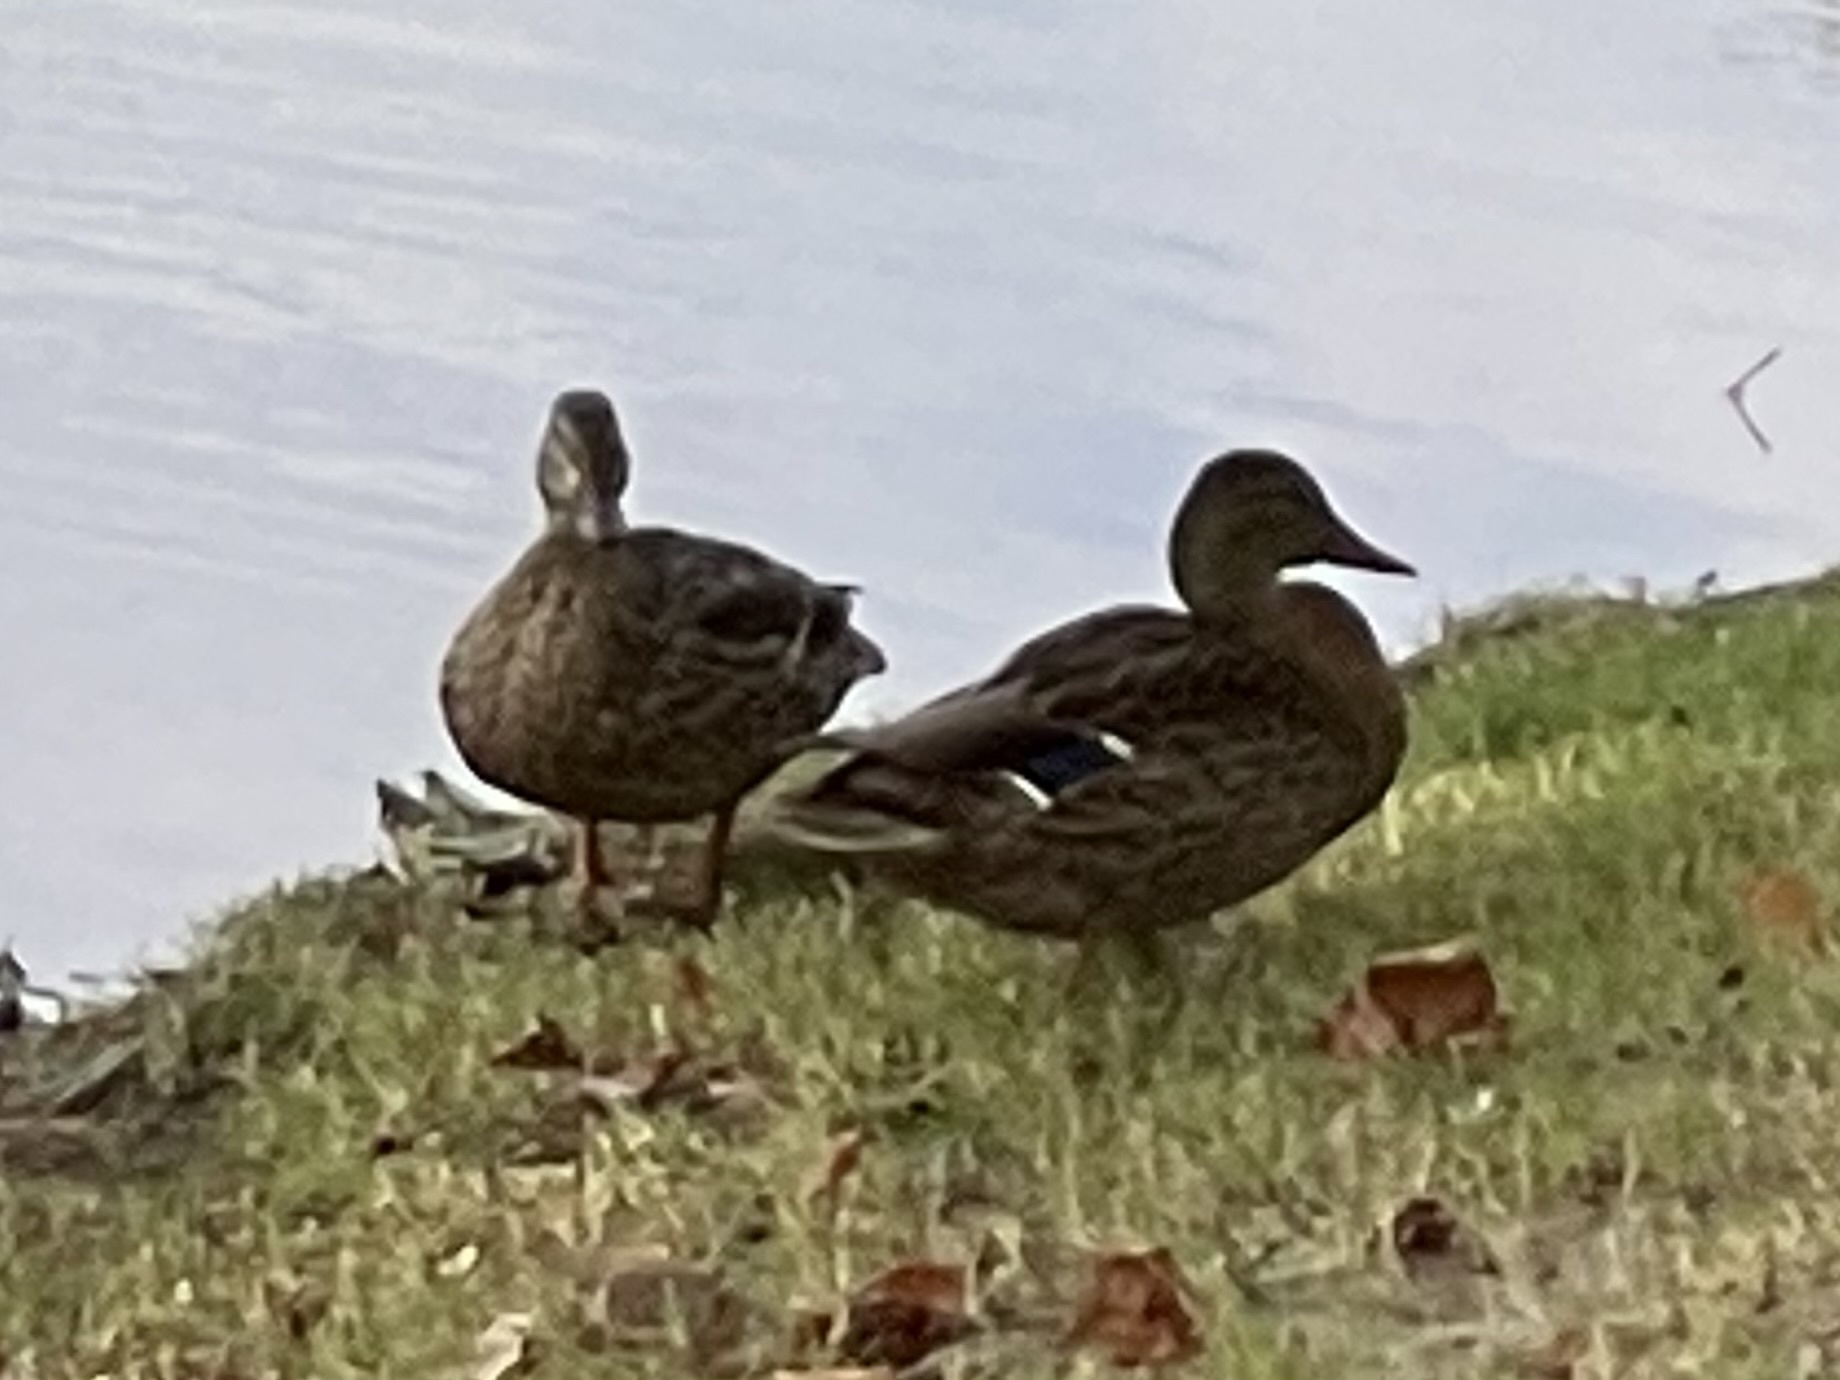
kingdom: Animalia
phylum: Chordata
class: Aves
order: Anseriformes
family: Anatidae
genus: Anas
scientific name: Anas platyrhynchos
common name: Mallard
